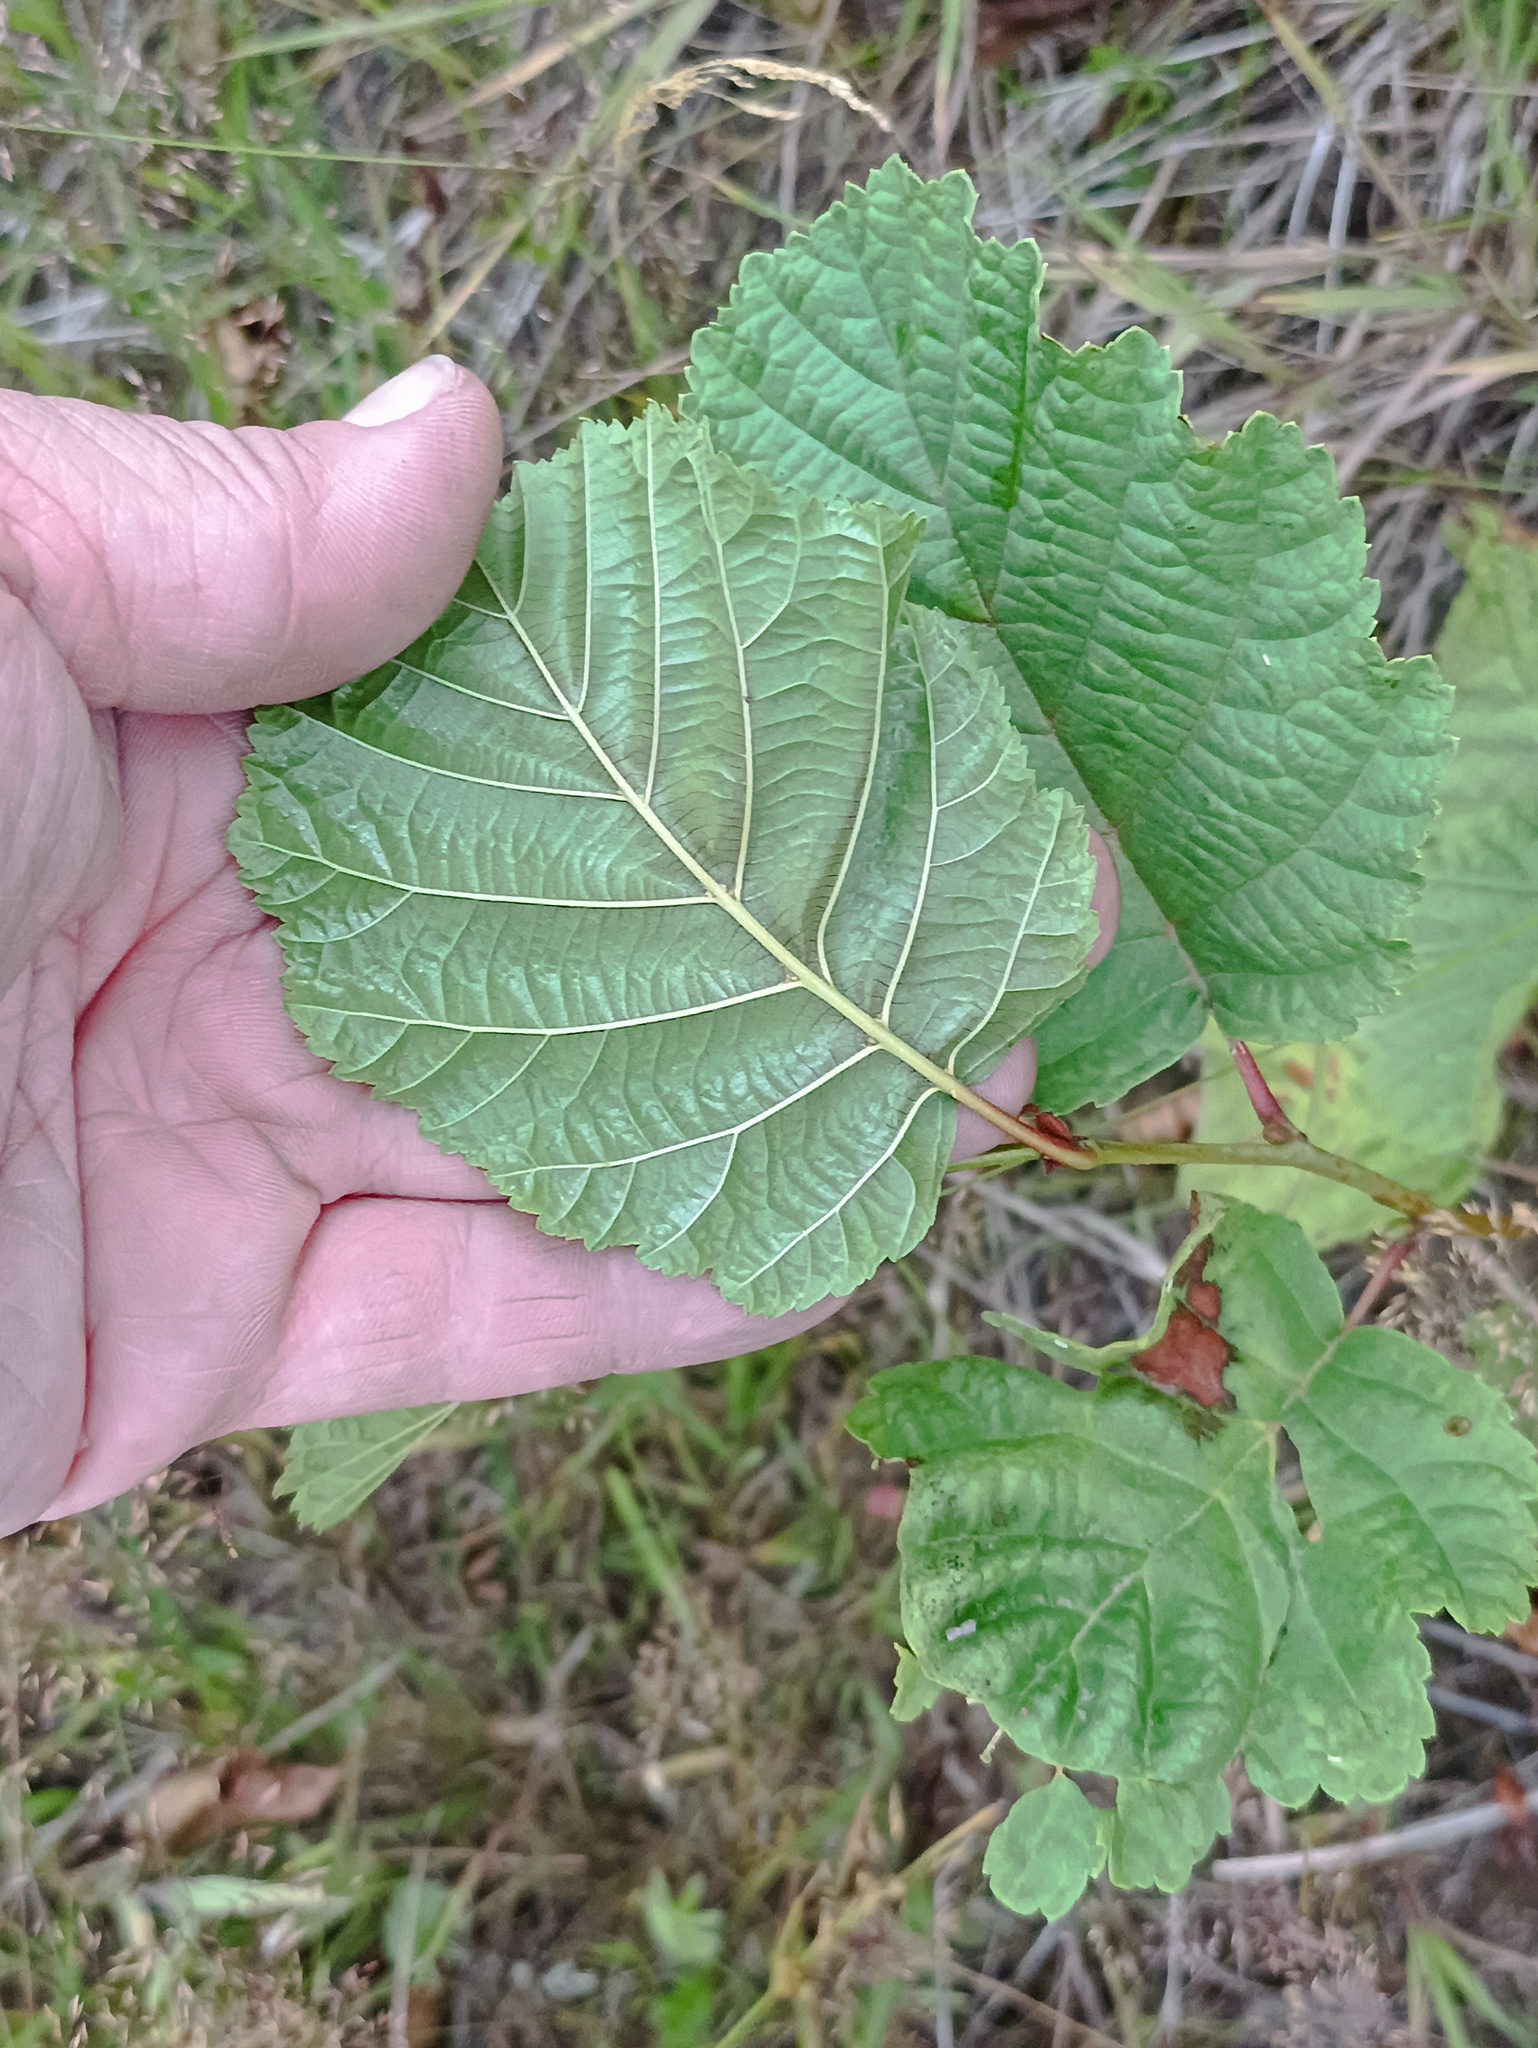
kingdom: Plantae
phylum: Tracheophyta
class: Magnoliopsida
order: Fagales
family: Betulaceae
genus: Alnus
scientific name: Alnus glutinosa
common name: Black alder
